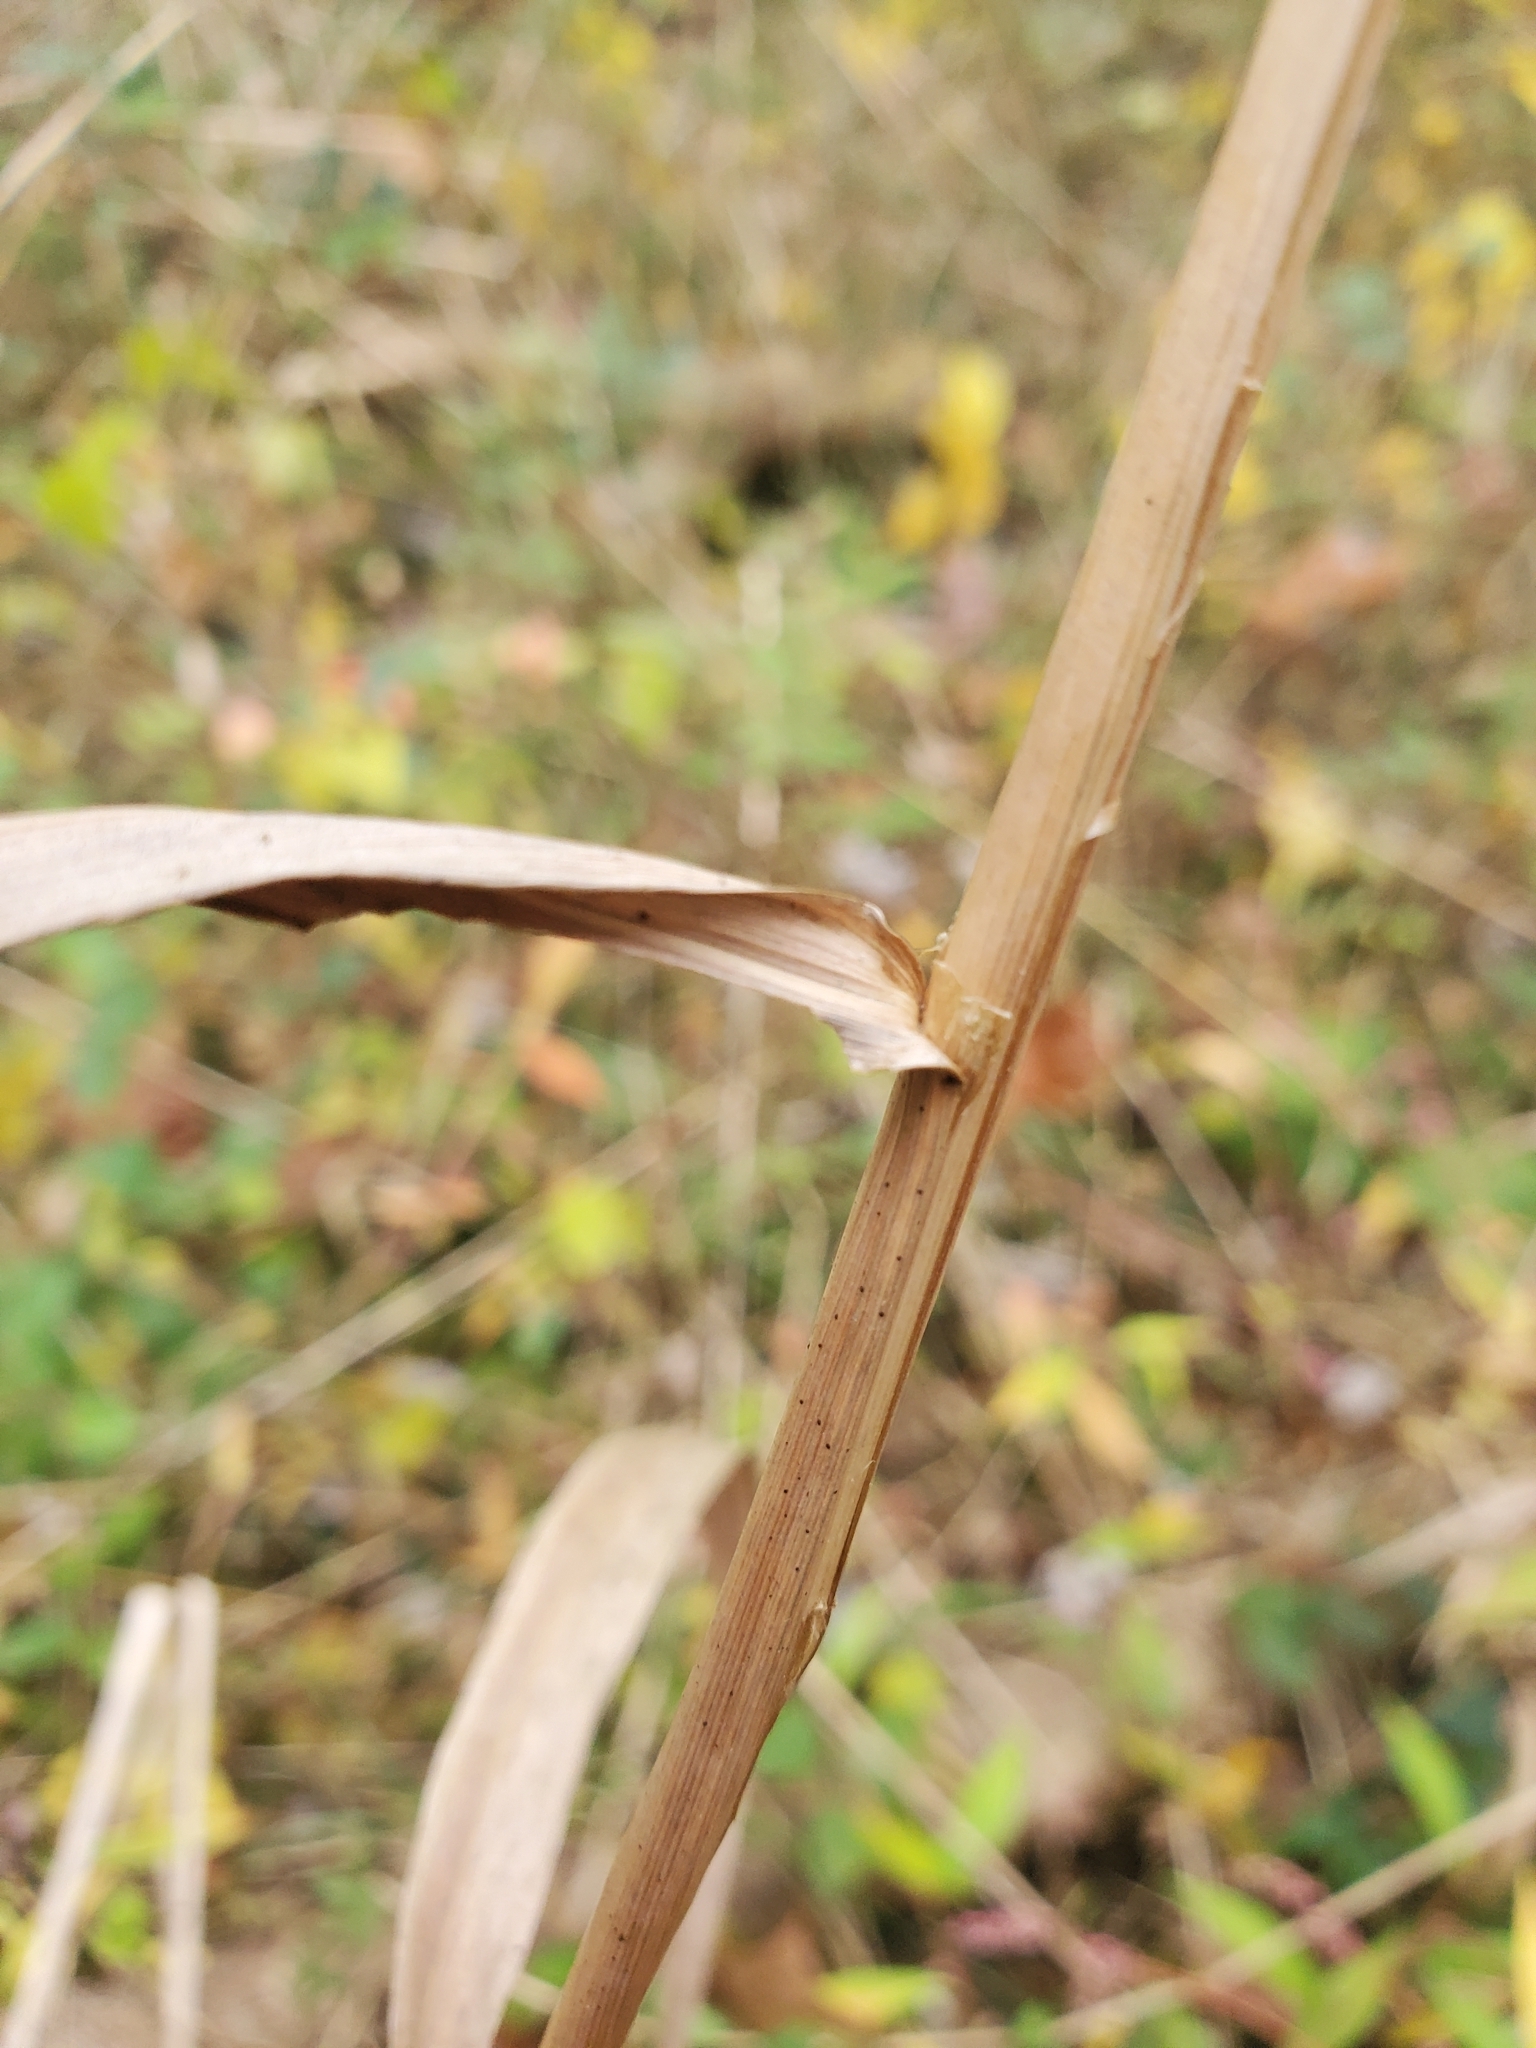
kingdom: Plantae
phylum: Tracheophyta
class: Liliopsida
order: Poales
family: Poaceae
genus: Cinna
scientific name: Cinna arundinacea
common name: Stout woodreed
